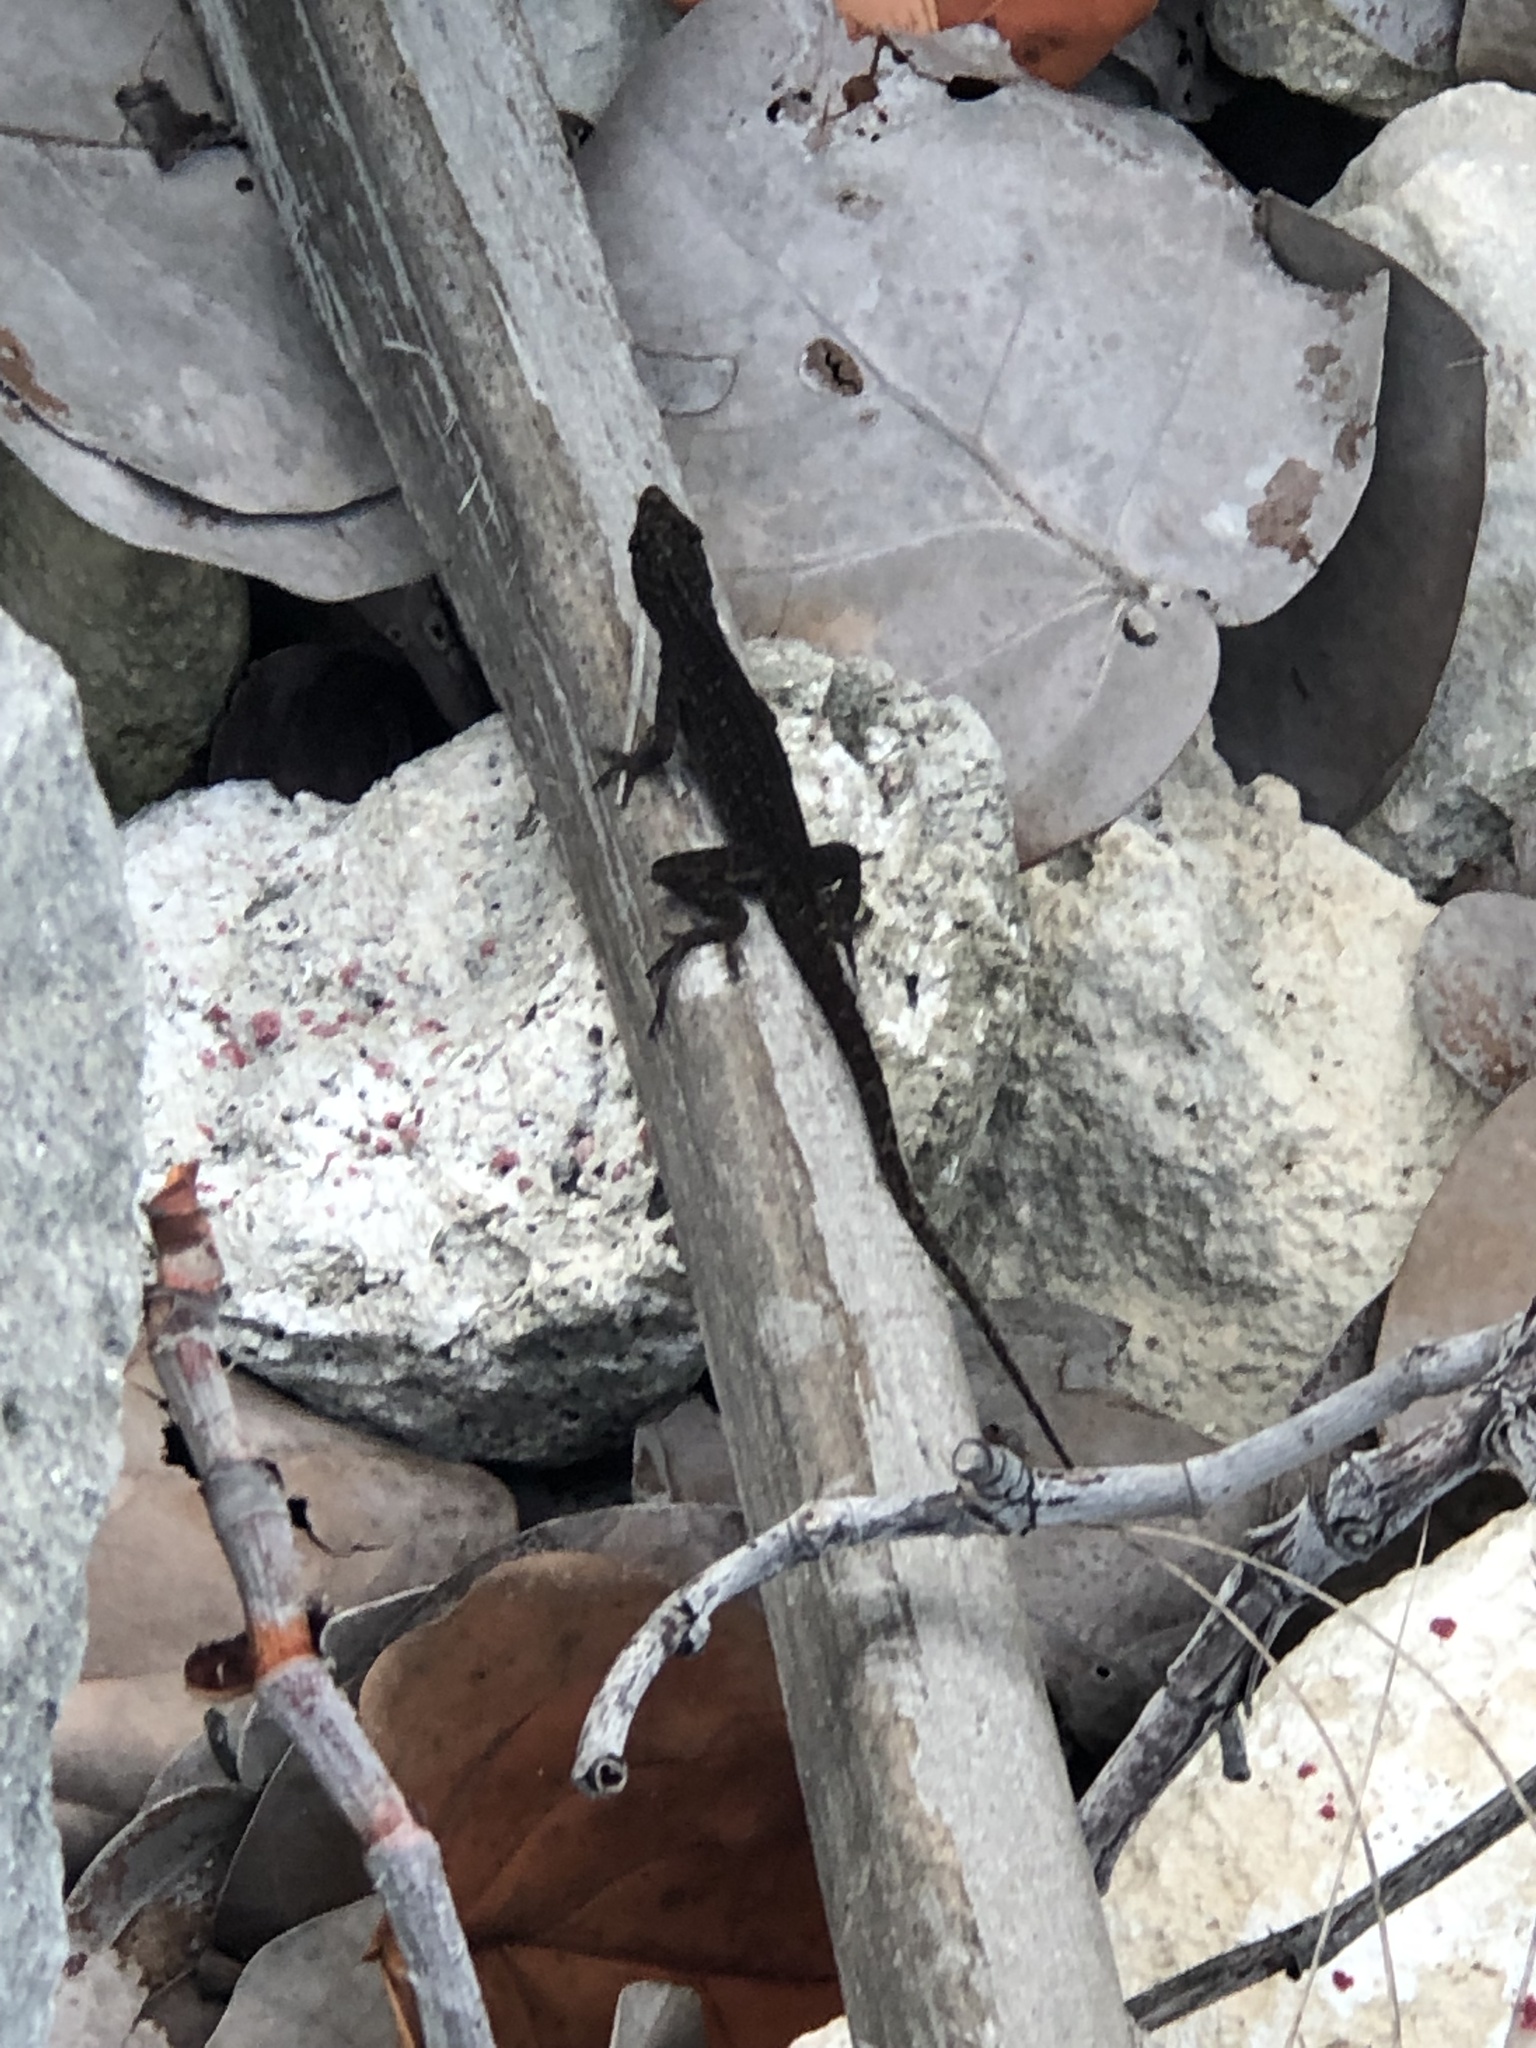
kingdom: Animalia
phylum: Chordata
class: Squamata
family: Dactyloidae
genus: Anolis
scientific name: Anolis sagrei
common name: Brown anole
